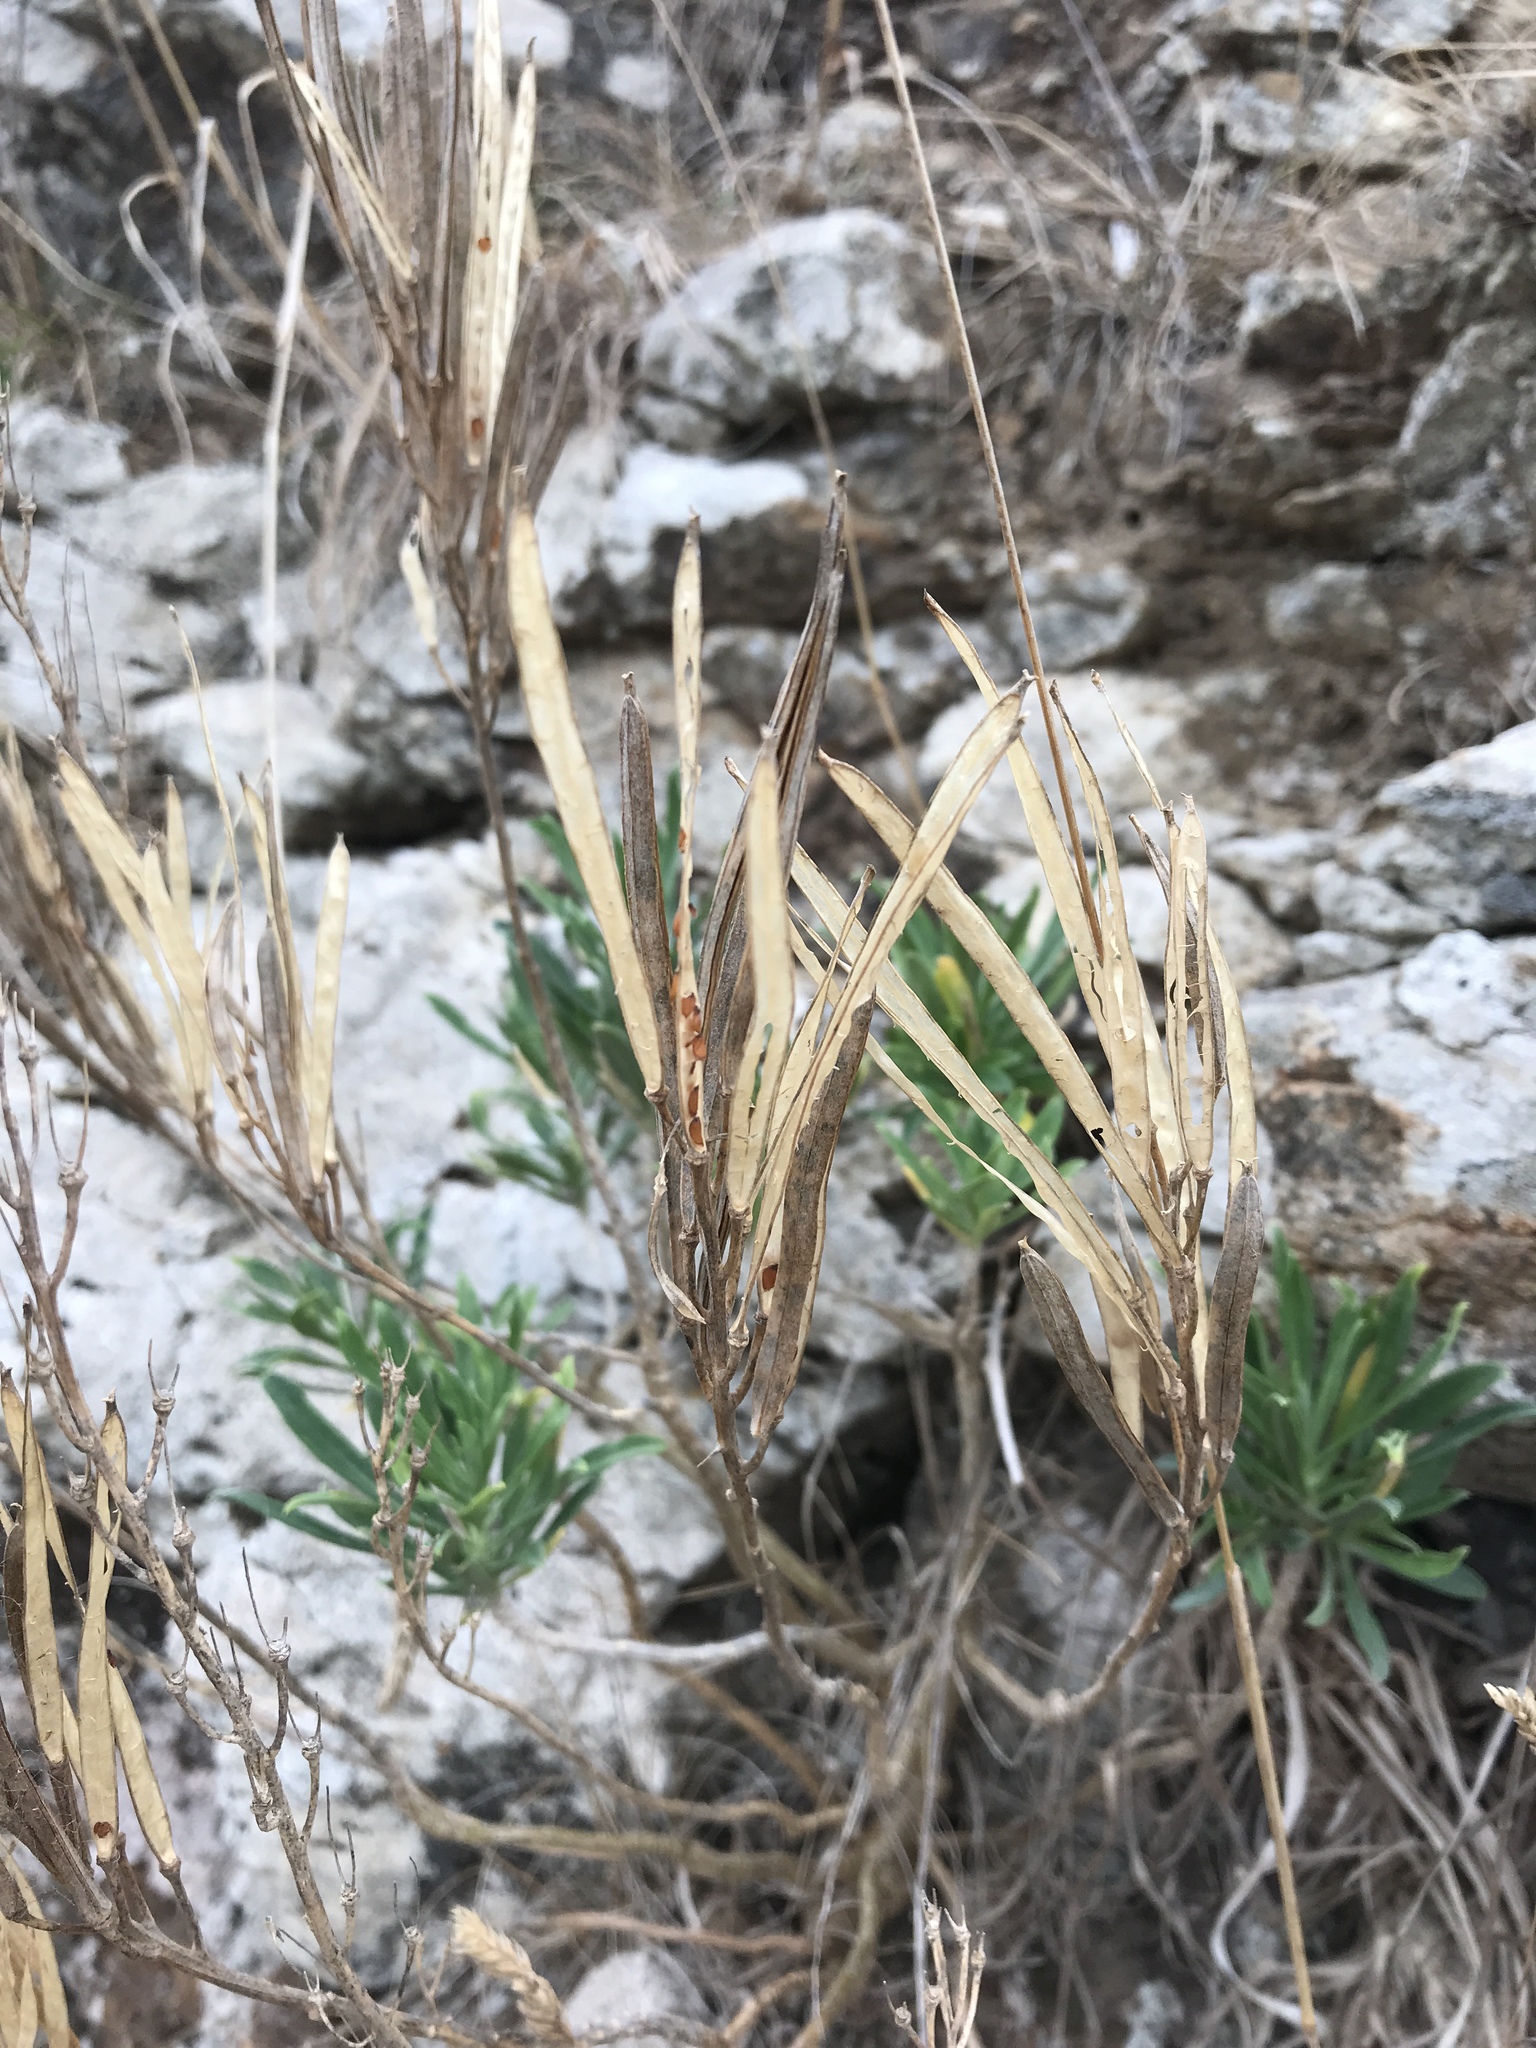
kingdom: Plantae
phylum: Tracheophyta
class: Magnoliopsida
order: Brassicales
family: Brassicaceae
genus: Erysimum
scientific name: Erysimum cheiri
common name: Wallflower
